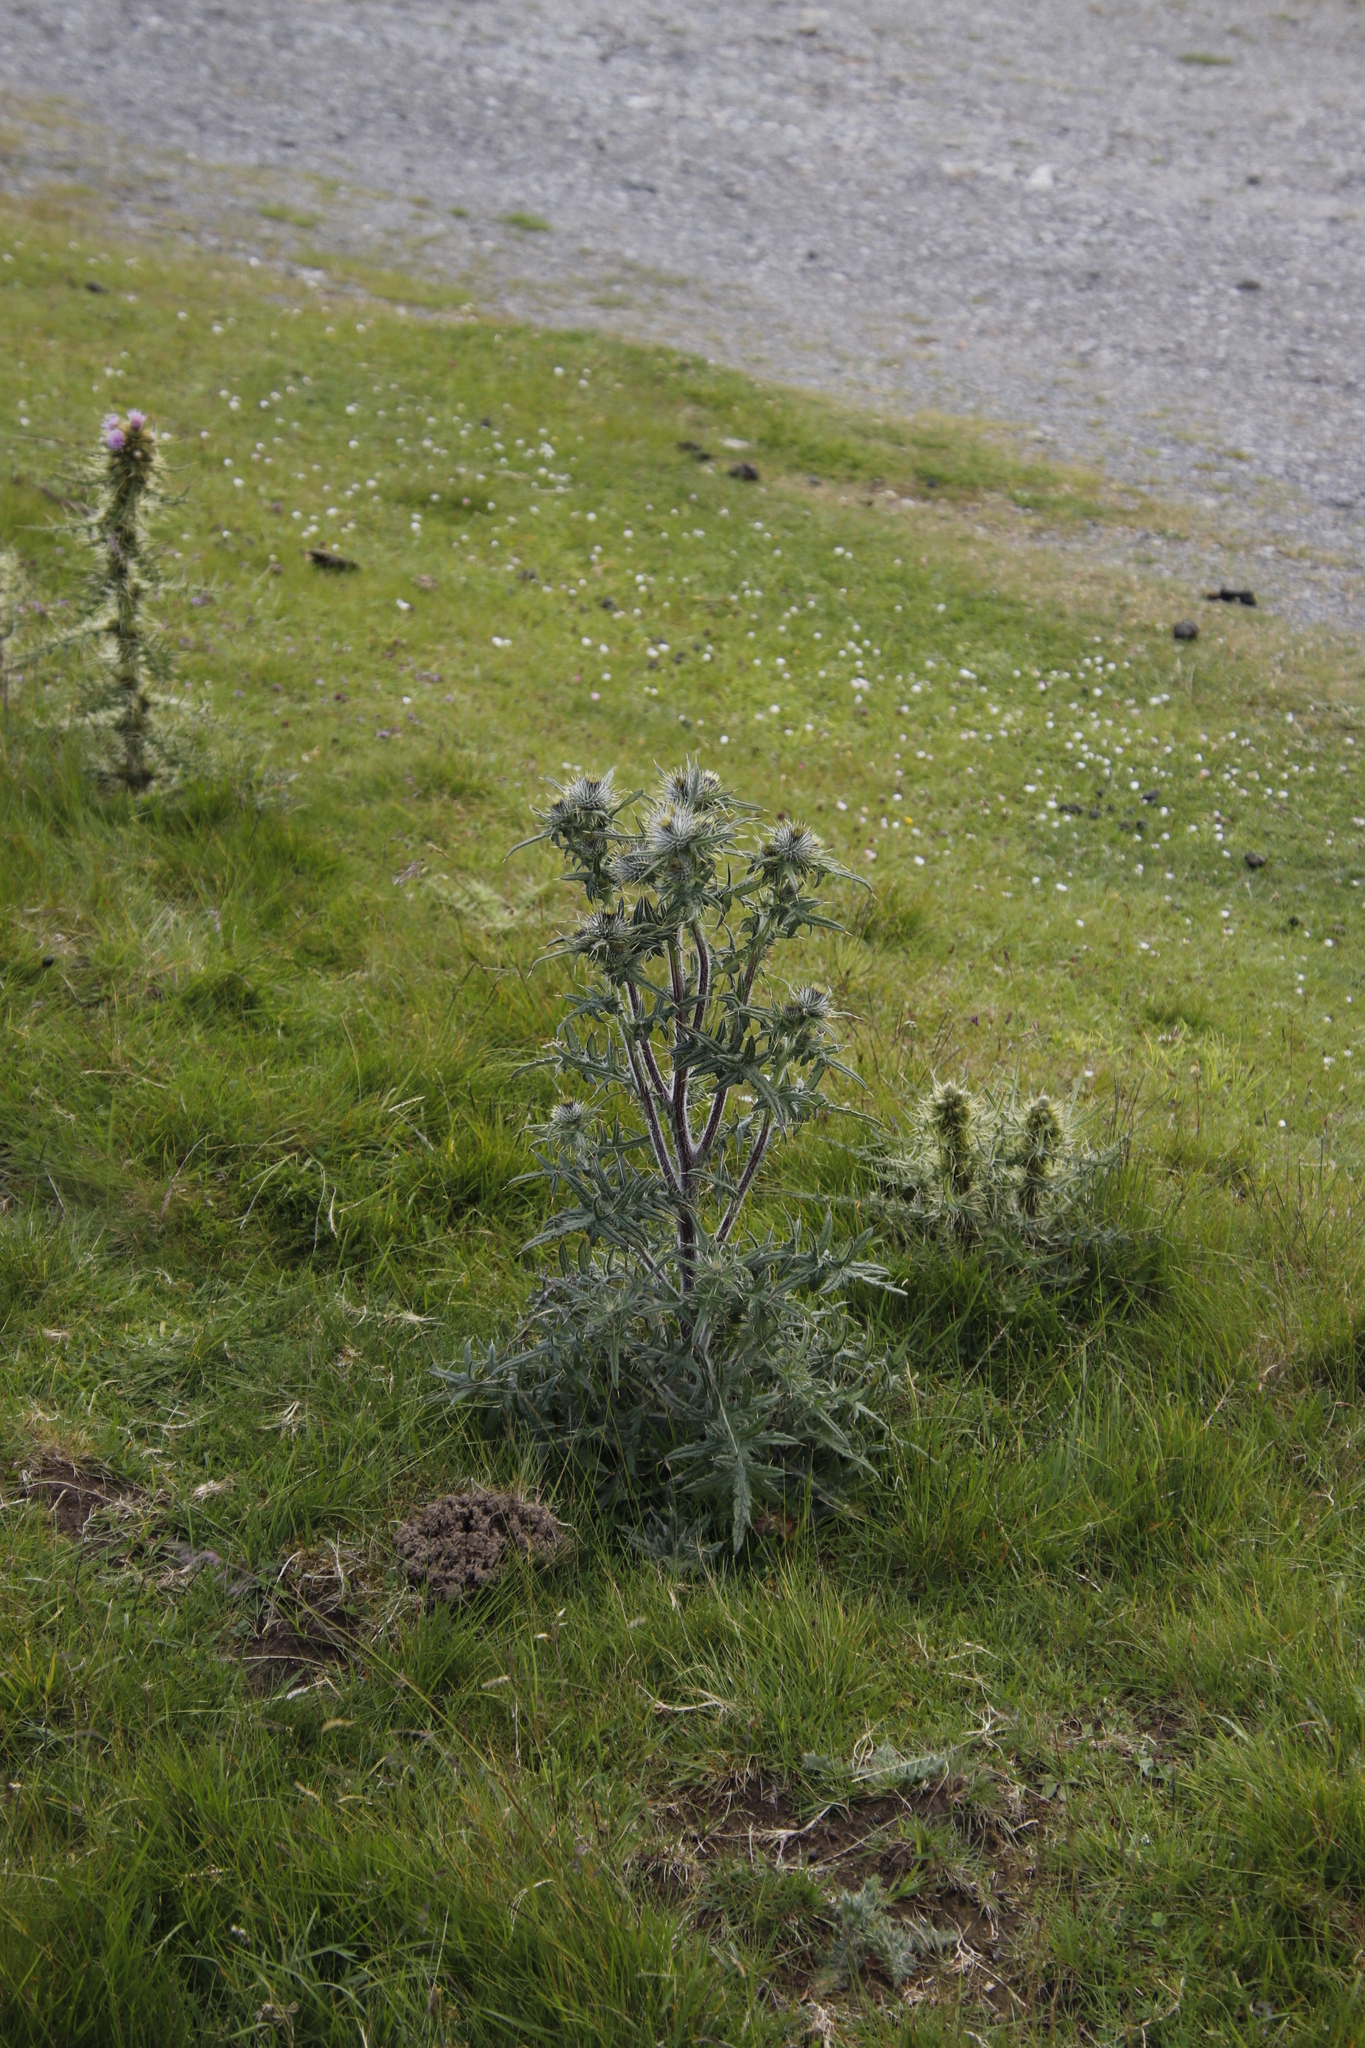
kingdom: Plantae
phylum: Tracheophyta
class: Magnoliopsida
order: Asterales
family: Asteraceae
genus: Cirsium
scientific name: Cirsium vulgare
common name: Bull thistle
